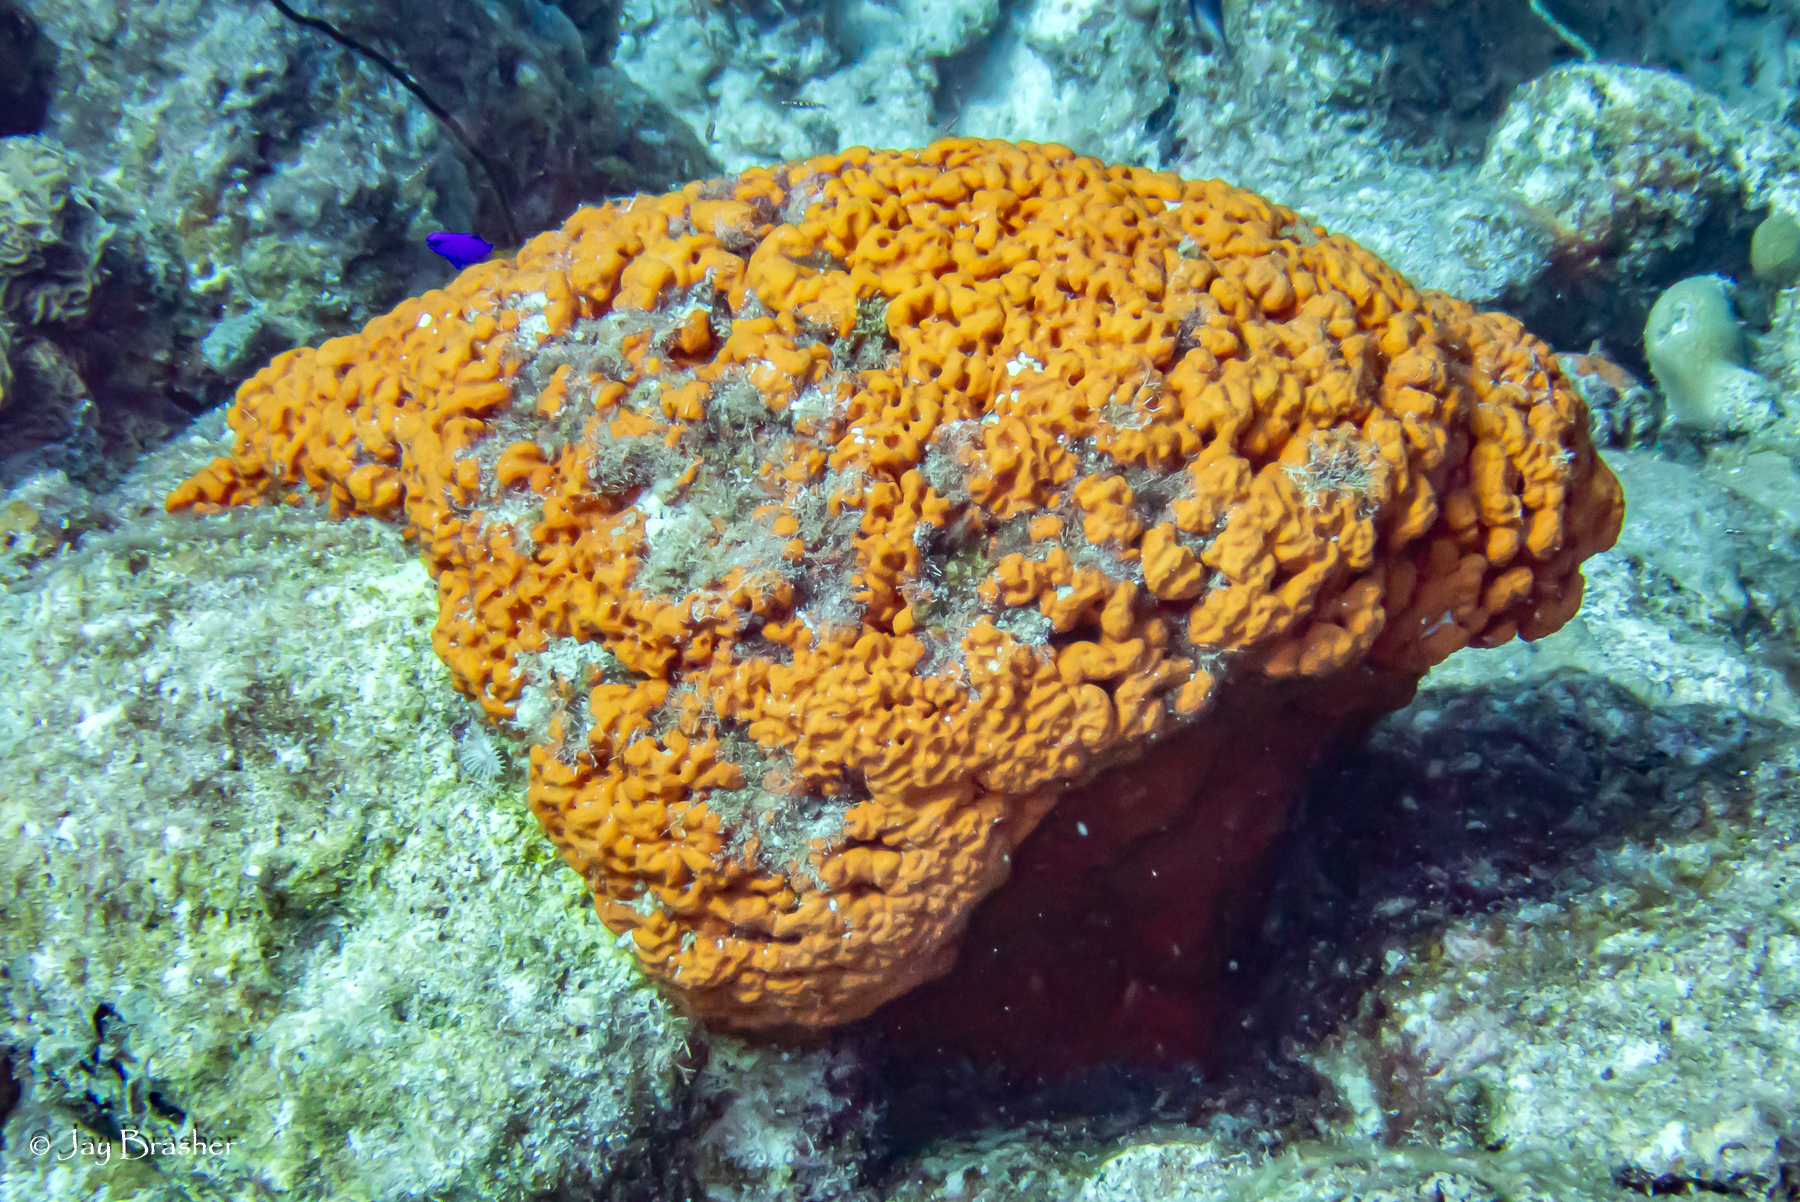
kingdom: Animalia
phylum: Porifera
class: Demospongiae
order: Agelasida
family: Agelasidae
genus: Agelas
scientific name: Agelas clathrodes
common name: Orange elephant ear sponge
